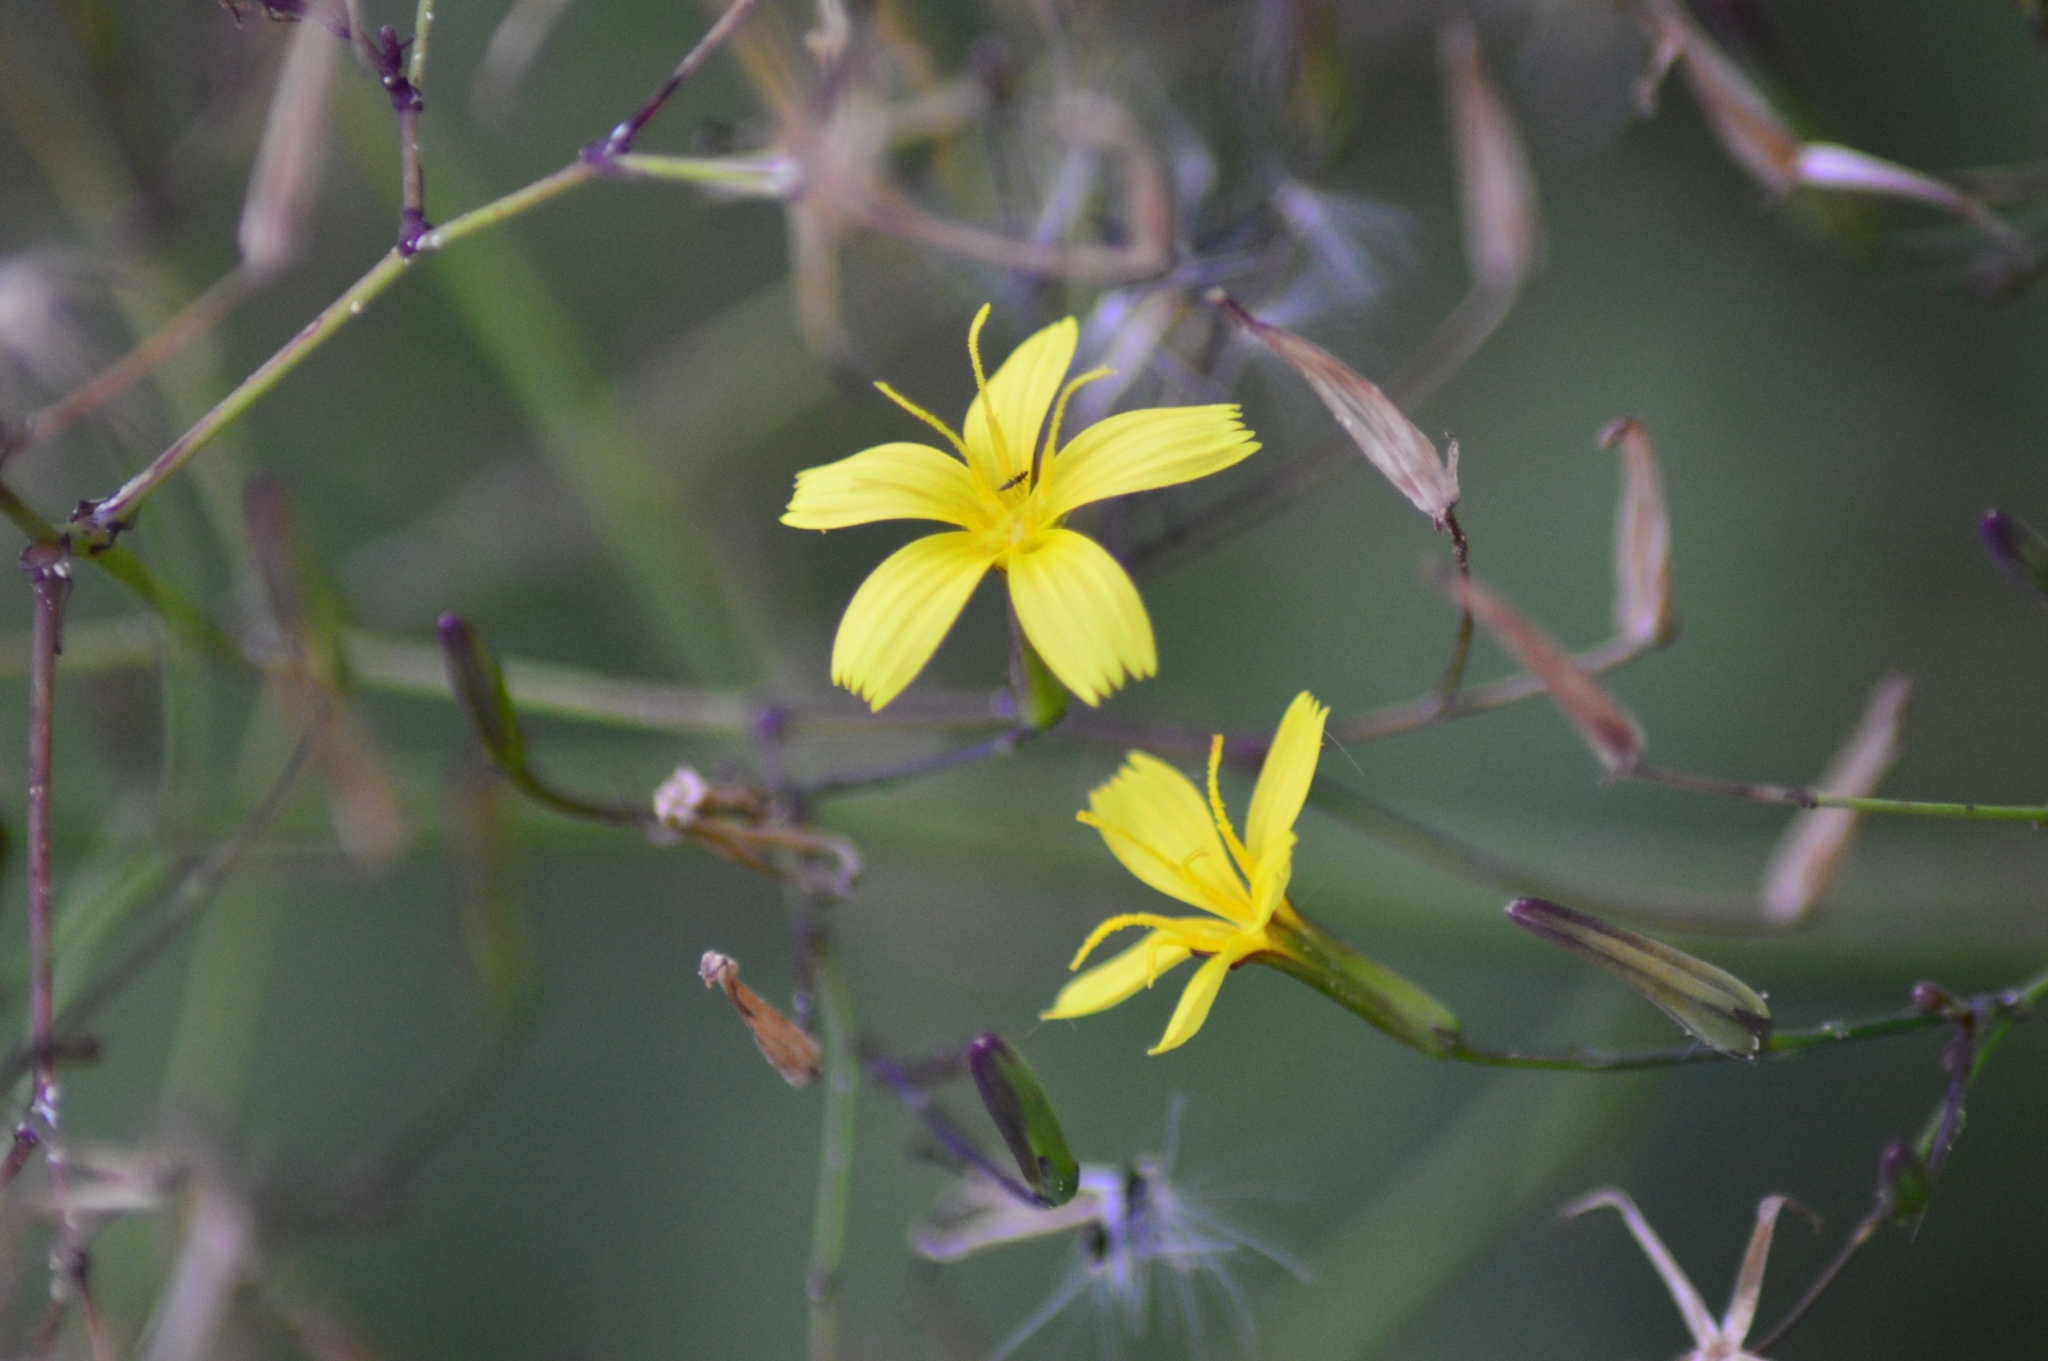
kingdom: Plantae
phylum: Tracheophyta
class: Magnoliopsida
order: Asterales
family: Asteraceae
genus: Mycelis
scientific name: Mycelis muralis
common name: Wall lettuce
